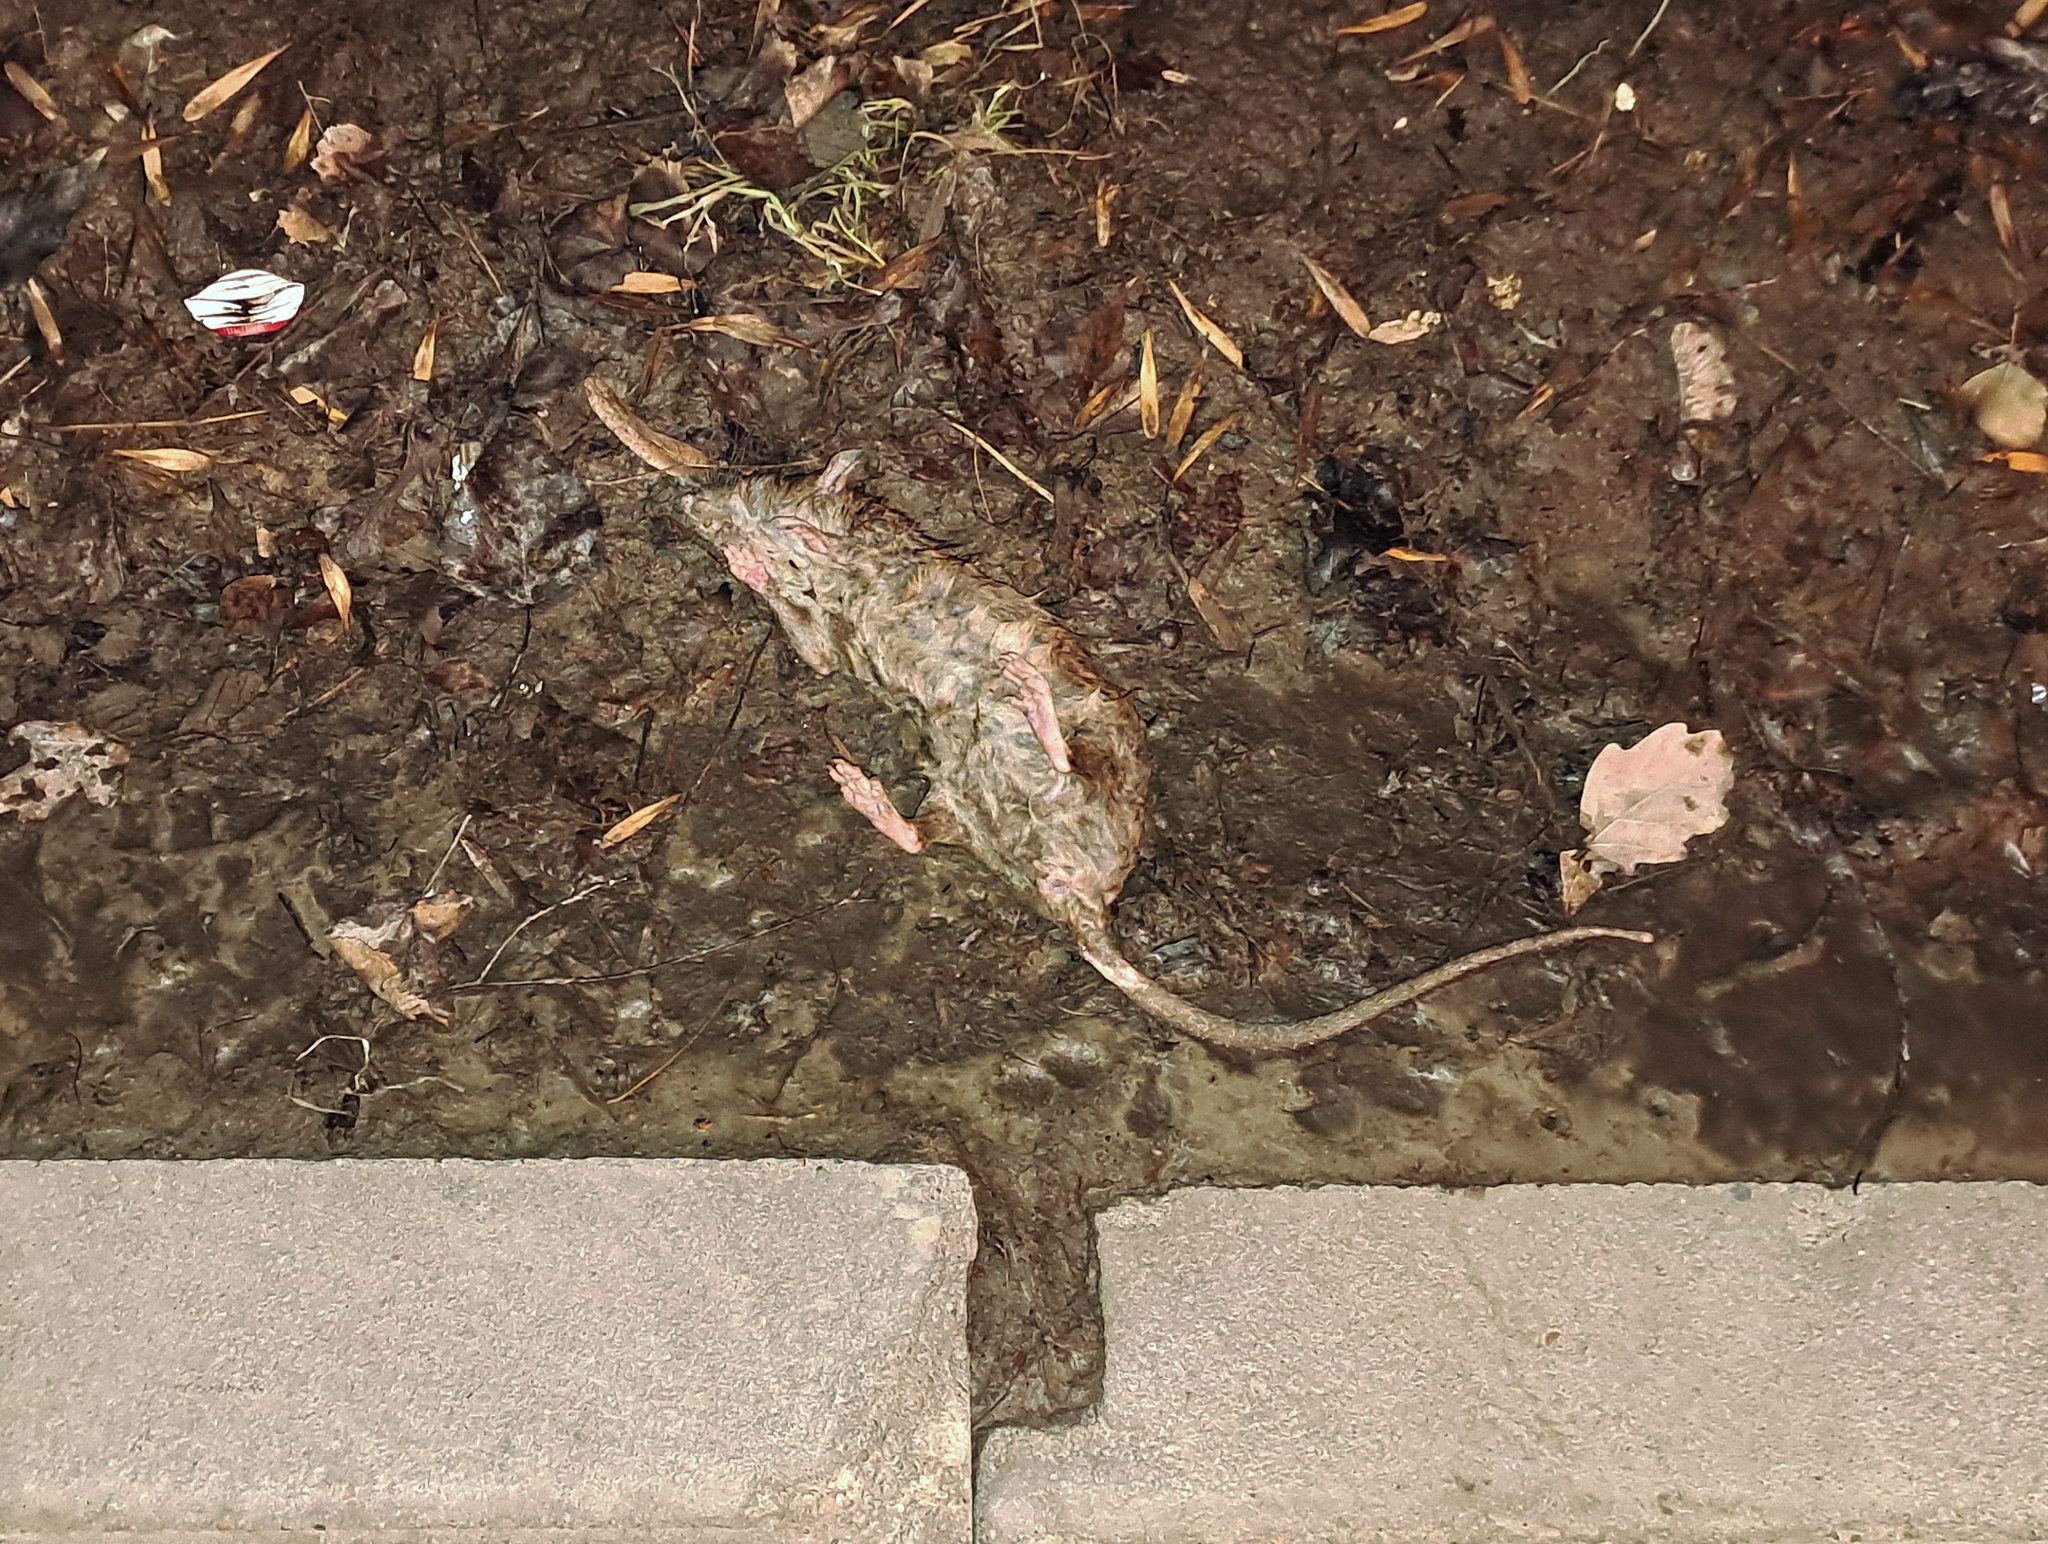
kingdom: Animalia
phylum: Chordata
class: Mammalia
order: Rodentia
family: Muridae
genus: Rattus
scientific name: Rattus norvegicus
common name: Brown rat
